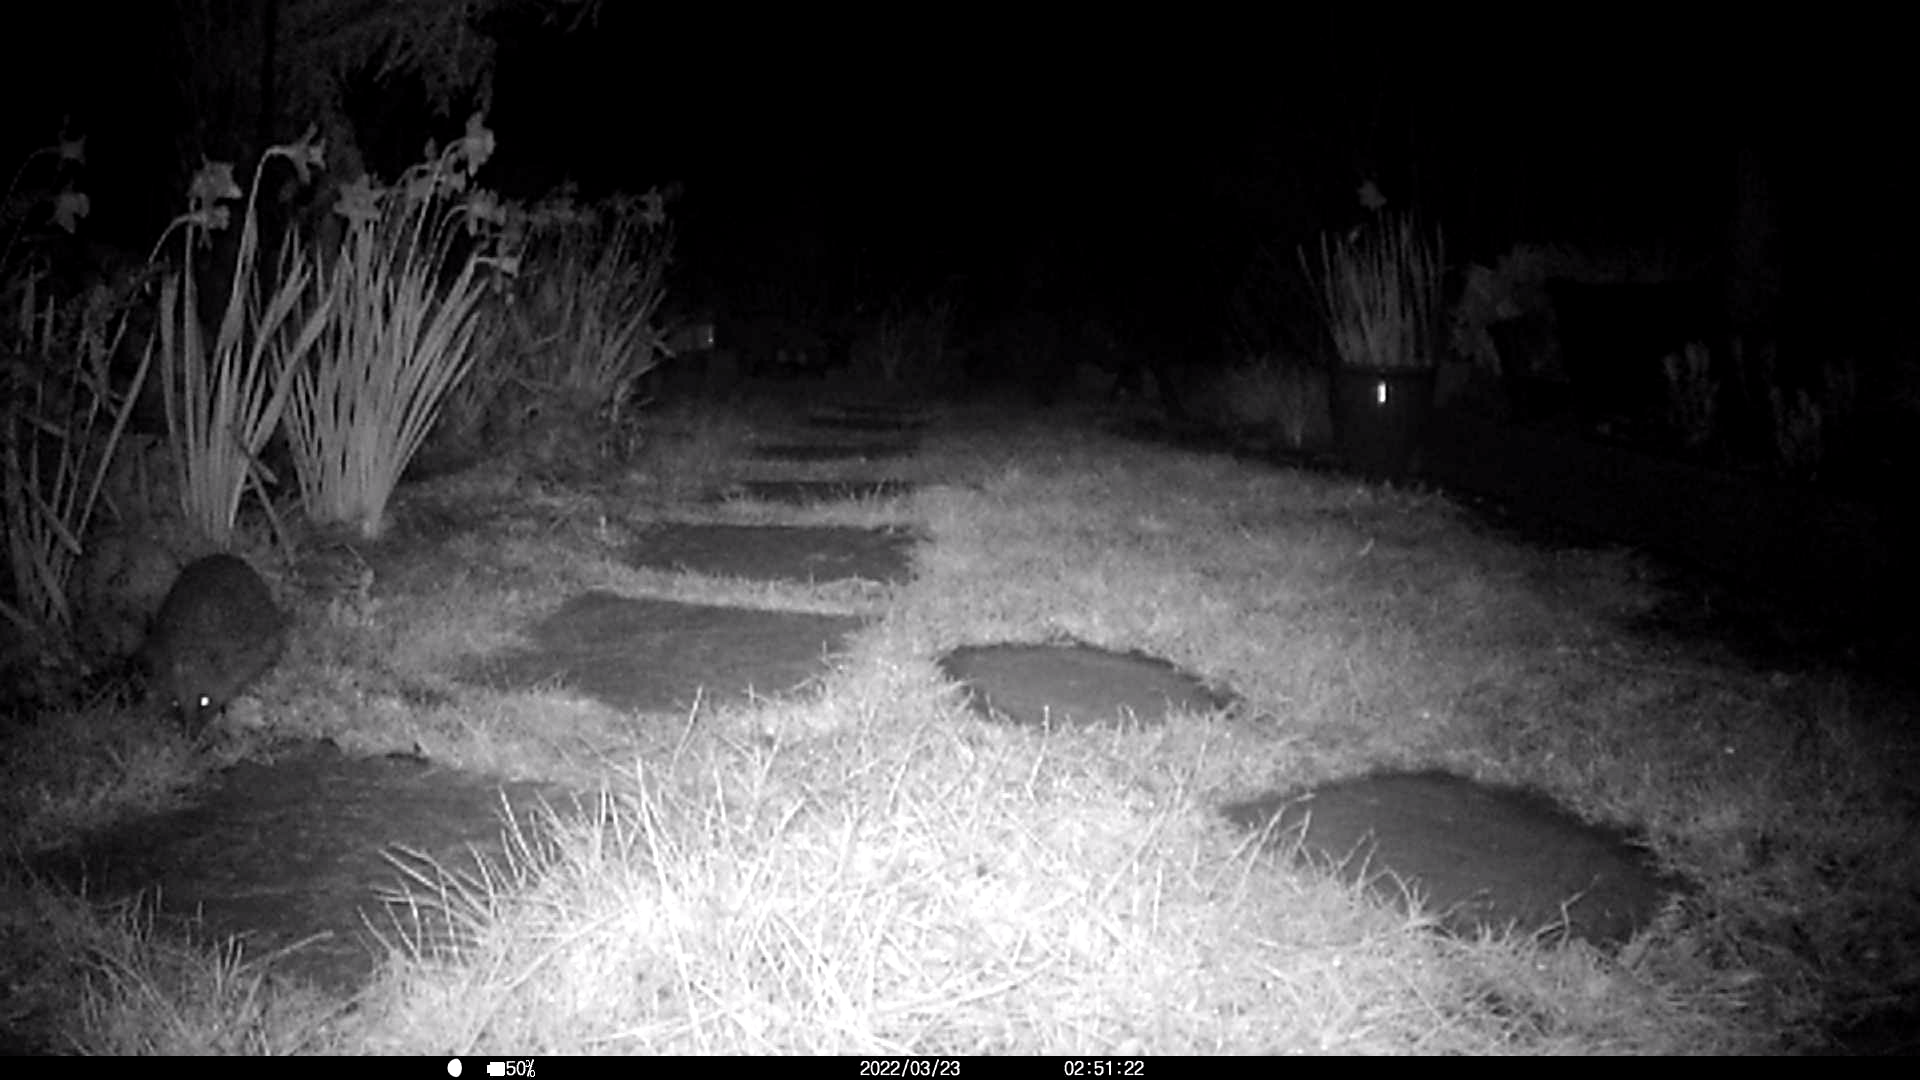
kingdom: Animalia
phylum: Chordata
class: Mammalia
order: Erinaceomorpha
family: Erinaceidae
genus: Erinaceus
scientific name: Erinaceus europaeus
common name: West european hedgehog
